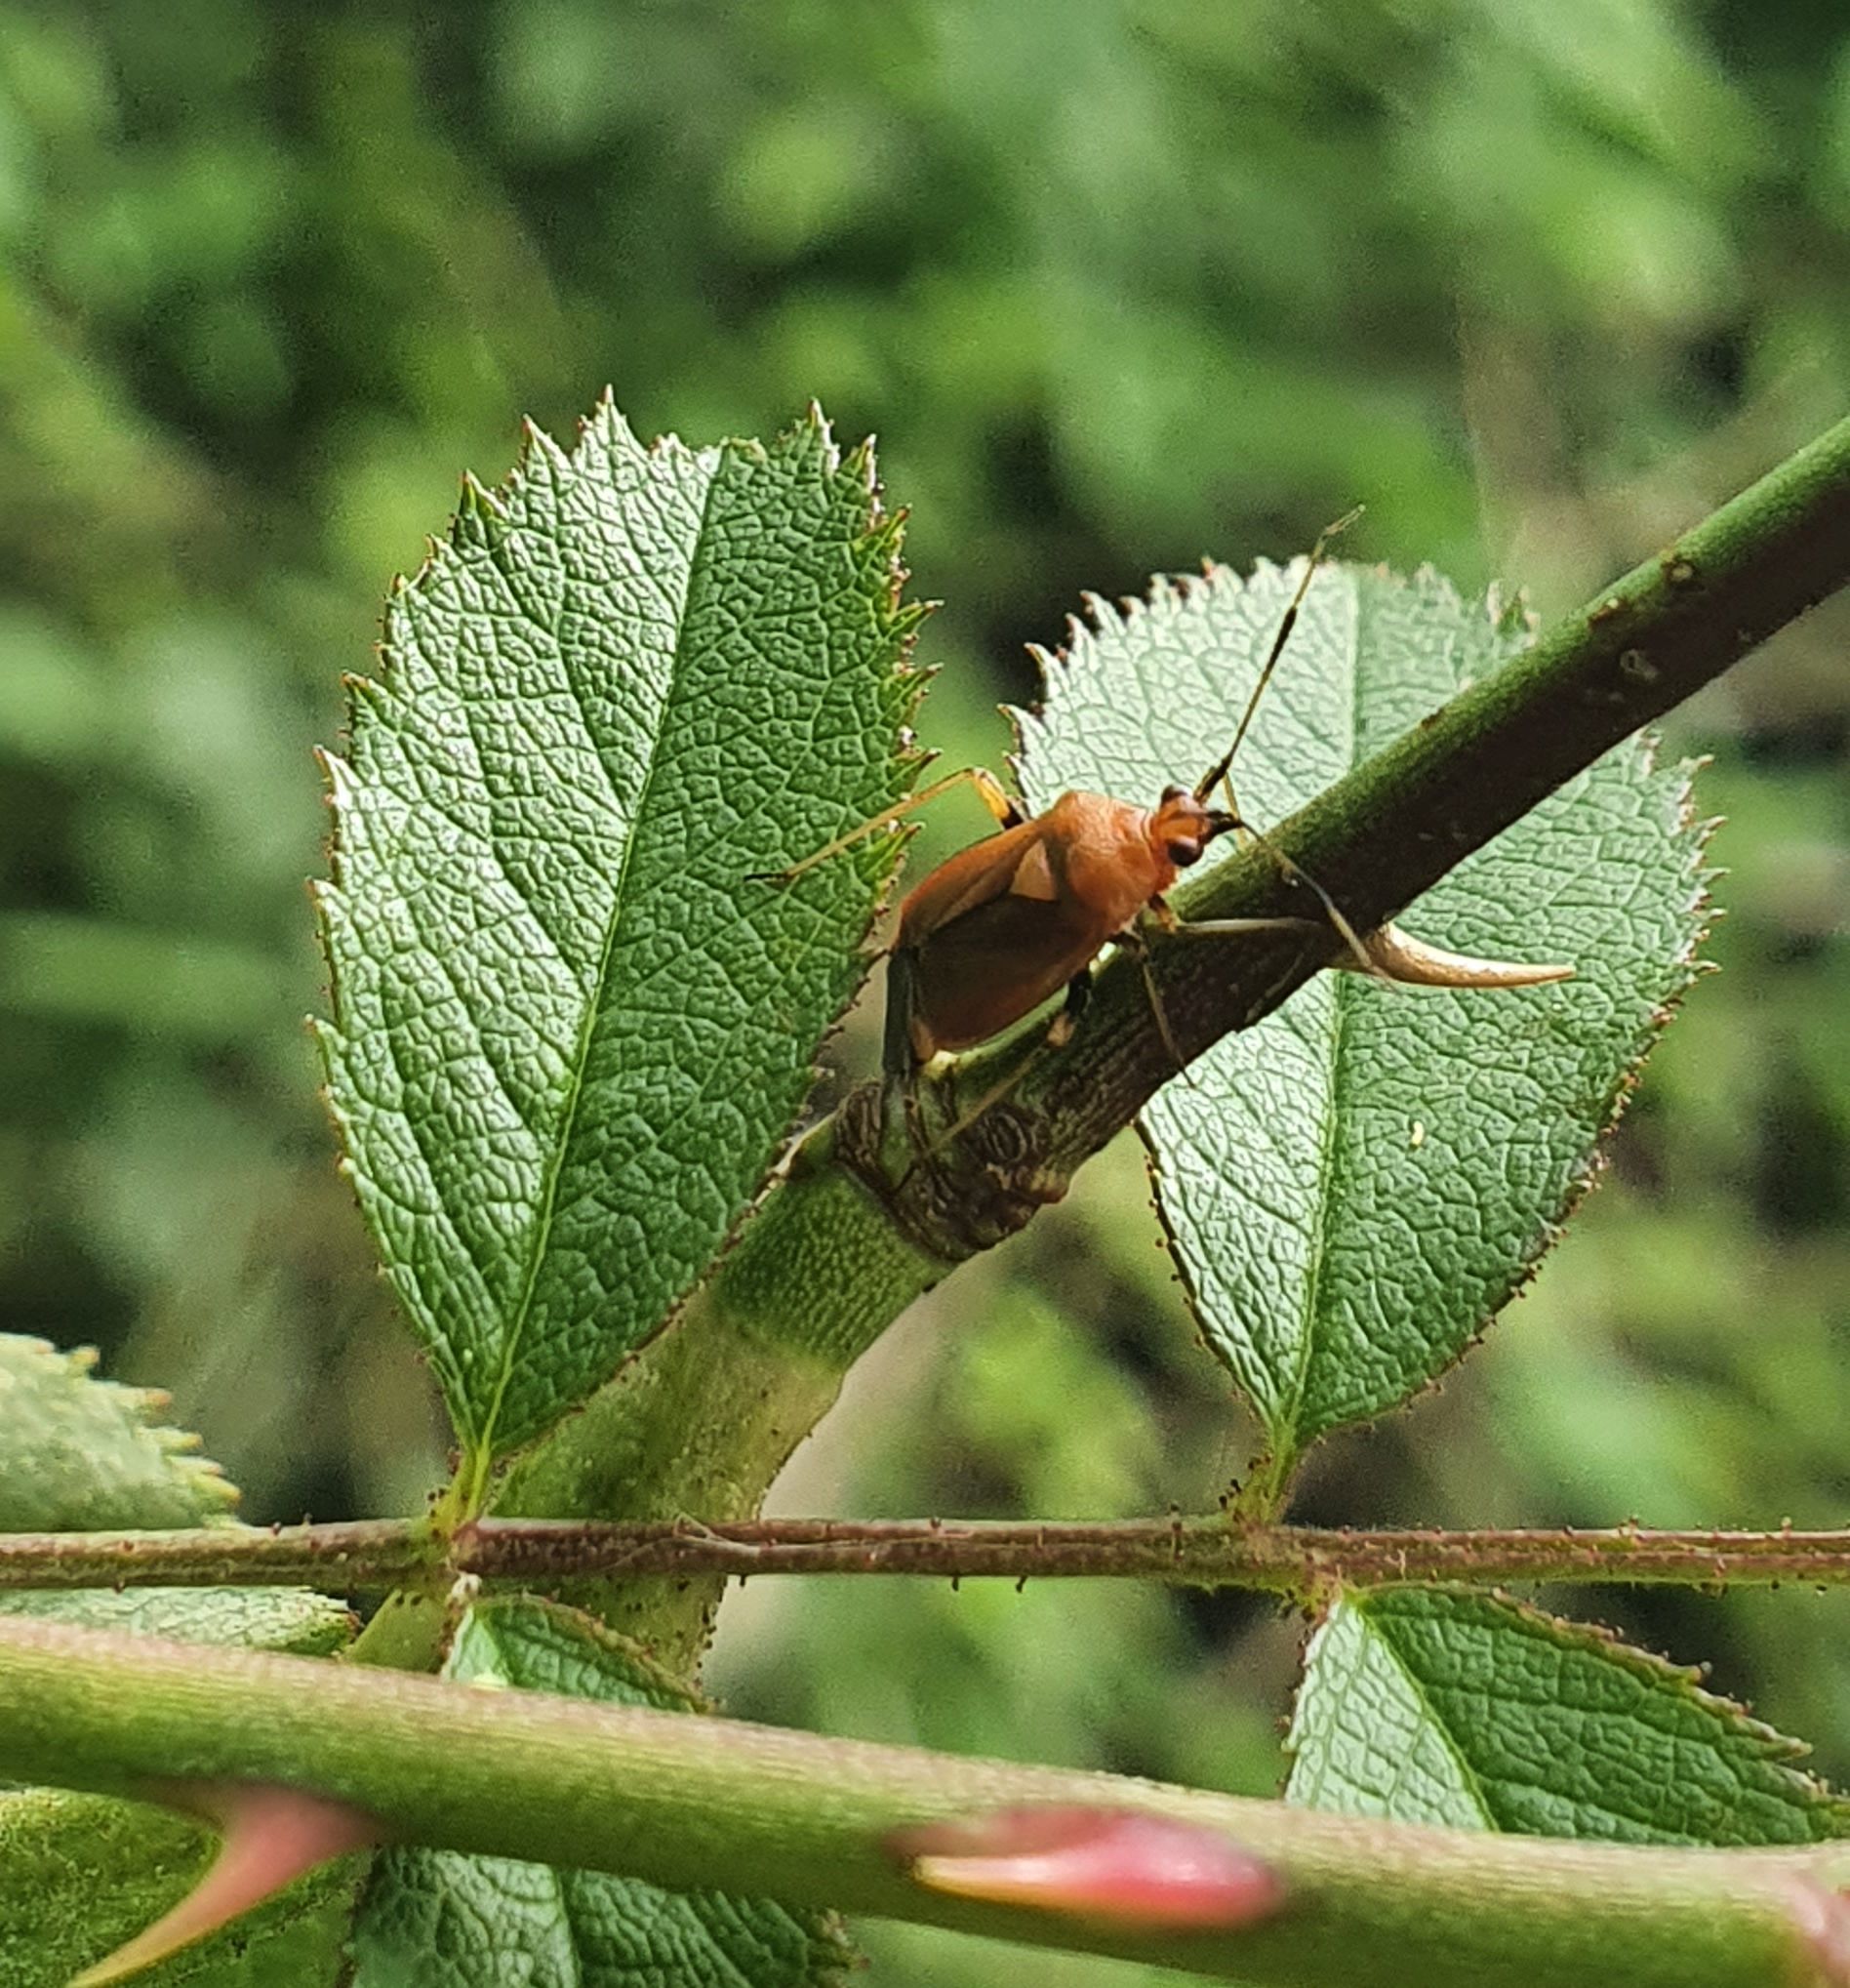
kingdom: Animalia
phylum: Arthropoda
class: Insecta
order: Hemiptera
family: Miridae
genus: Deraeocoris
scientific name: Deraeocoris ruber
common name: Plant bug
